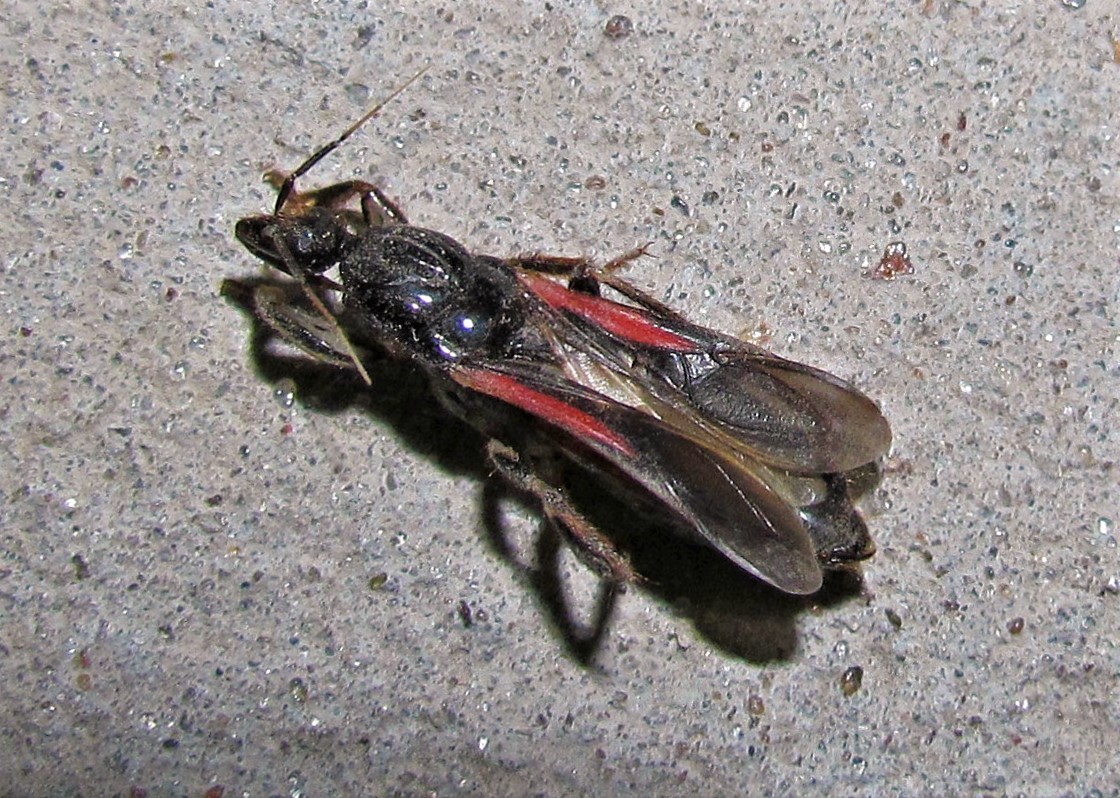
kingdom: Animalia
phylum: Arthropoda
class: Insecta
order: Hemiptera
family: Reduviidae
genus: Sirthenea
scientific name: Sirthenea stria
